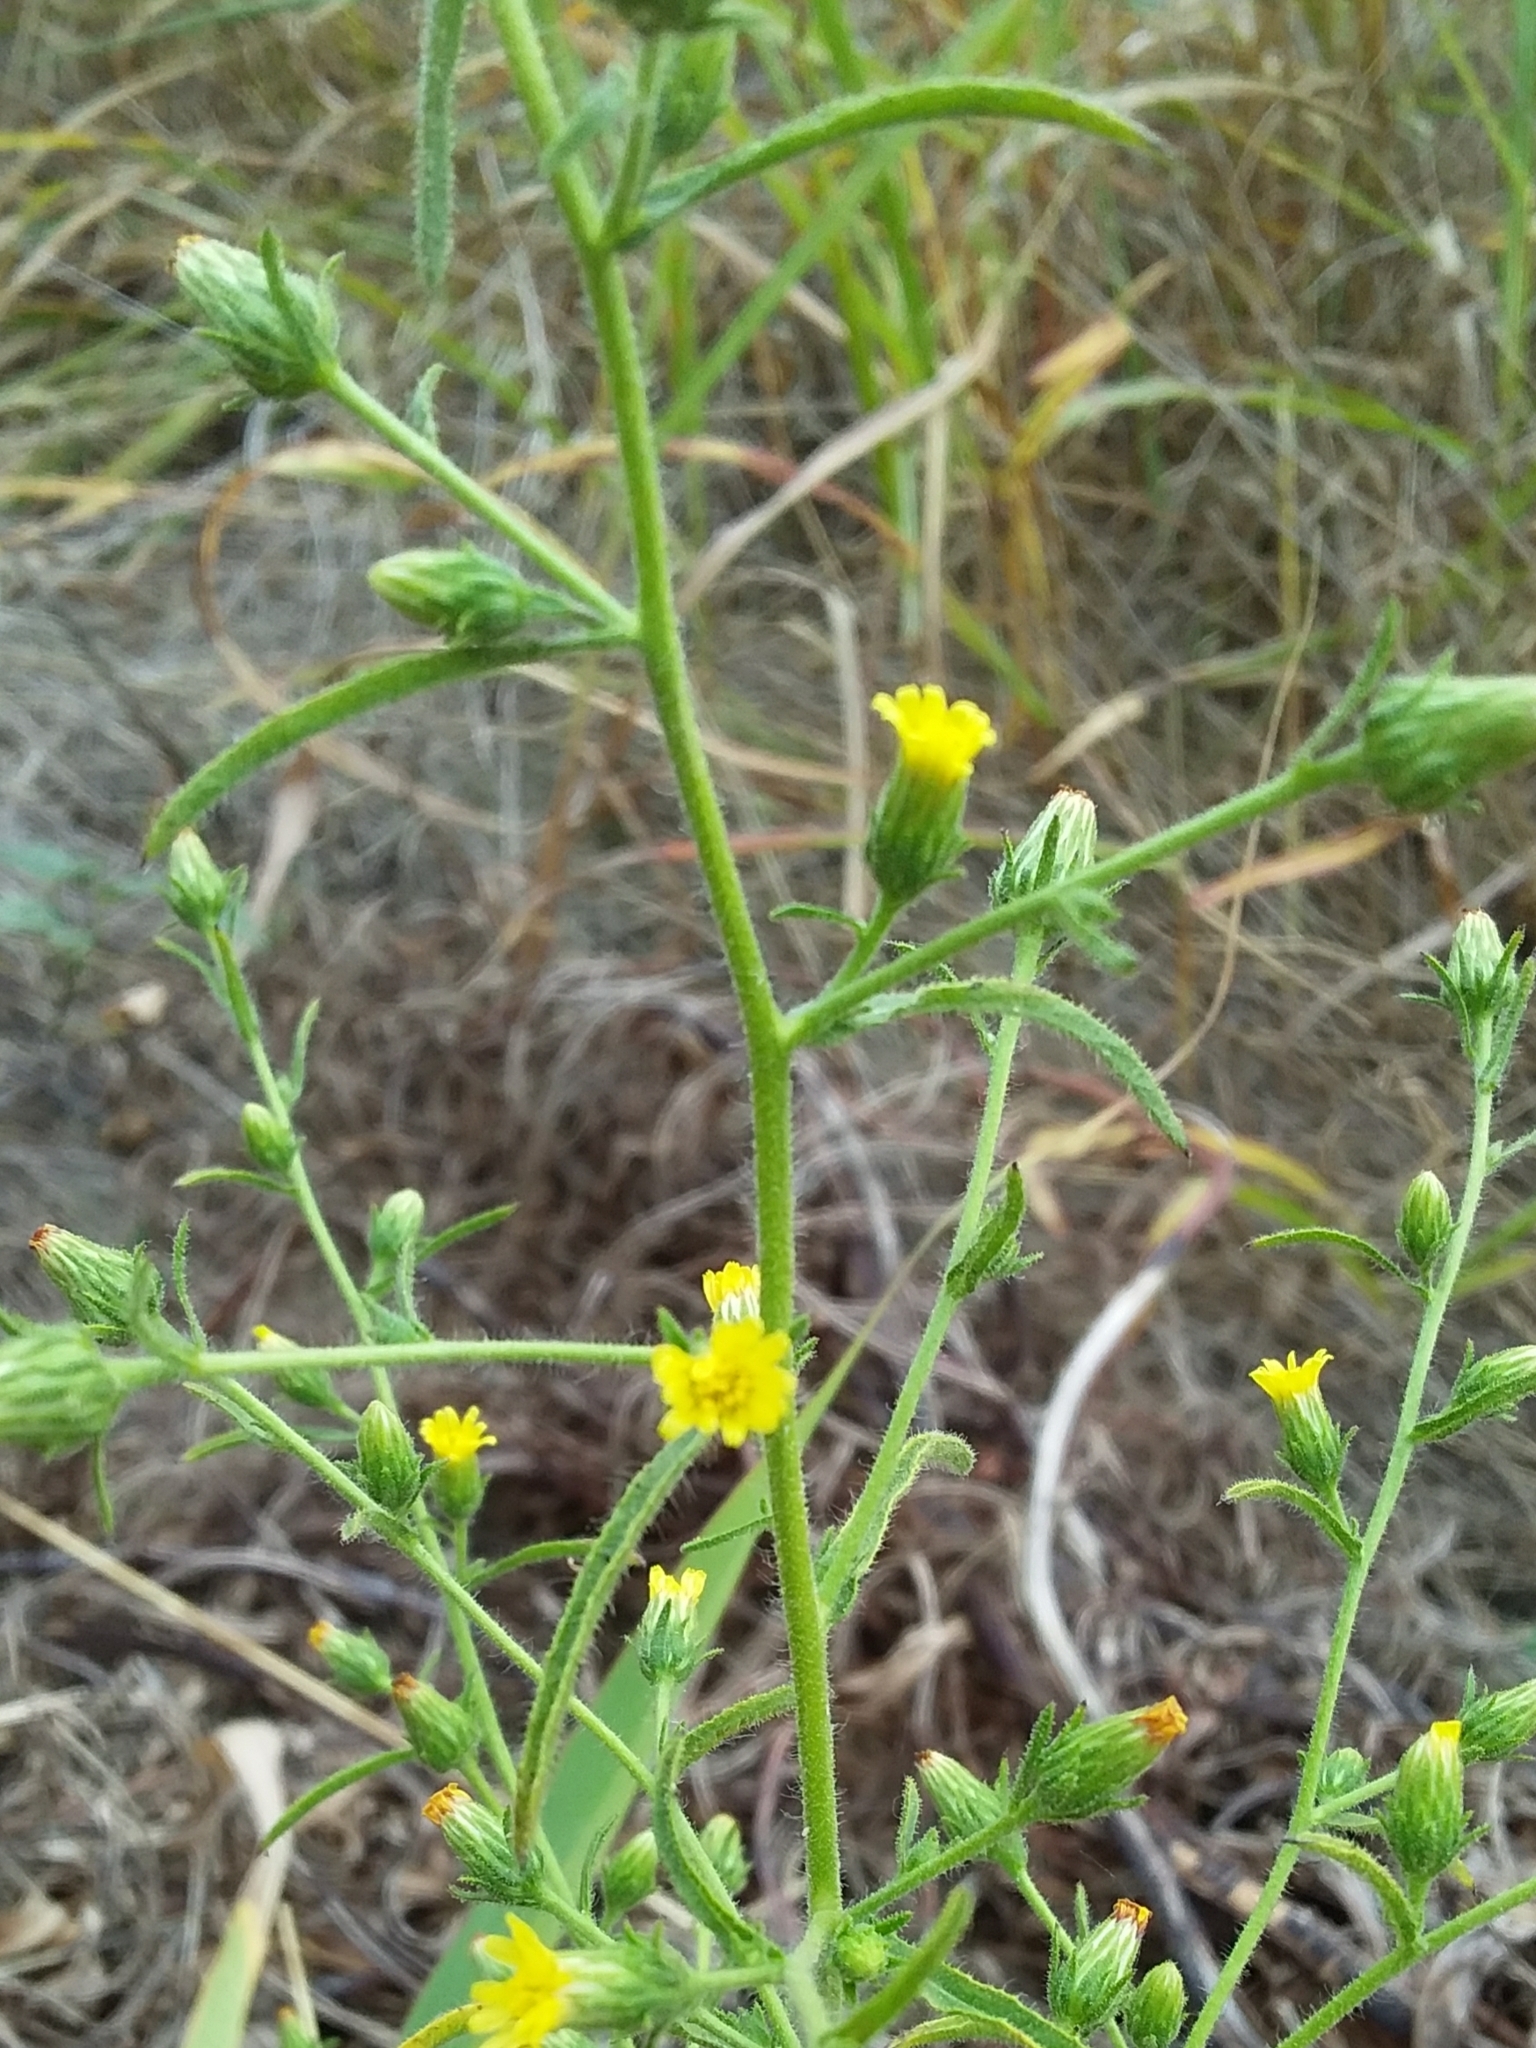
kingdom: Plantae
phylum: Tracheophyta
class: Magnoliopsida
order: Asterales
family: Asteraceae
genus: Dittrichia
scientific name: Dittrichia graveolens
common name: Stinking fleabane
